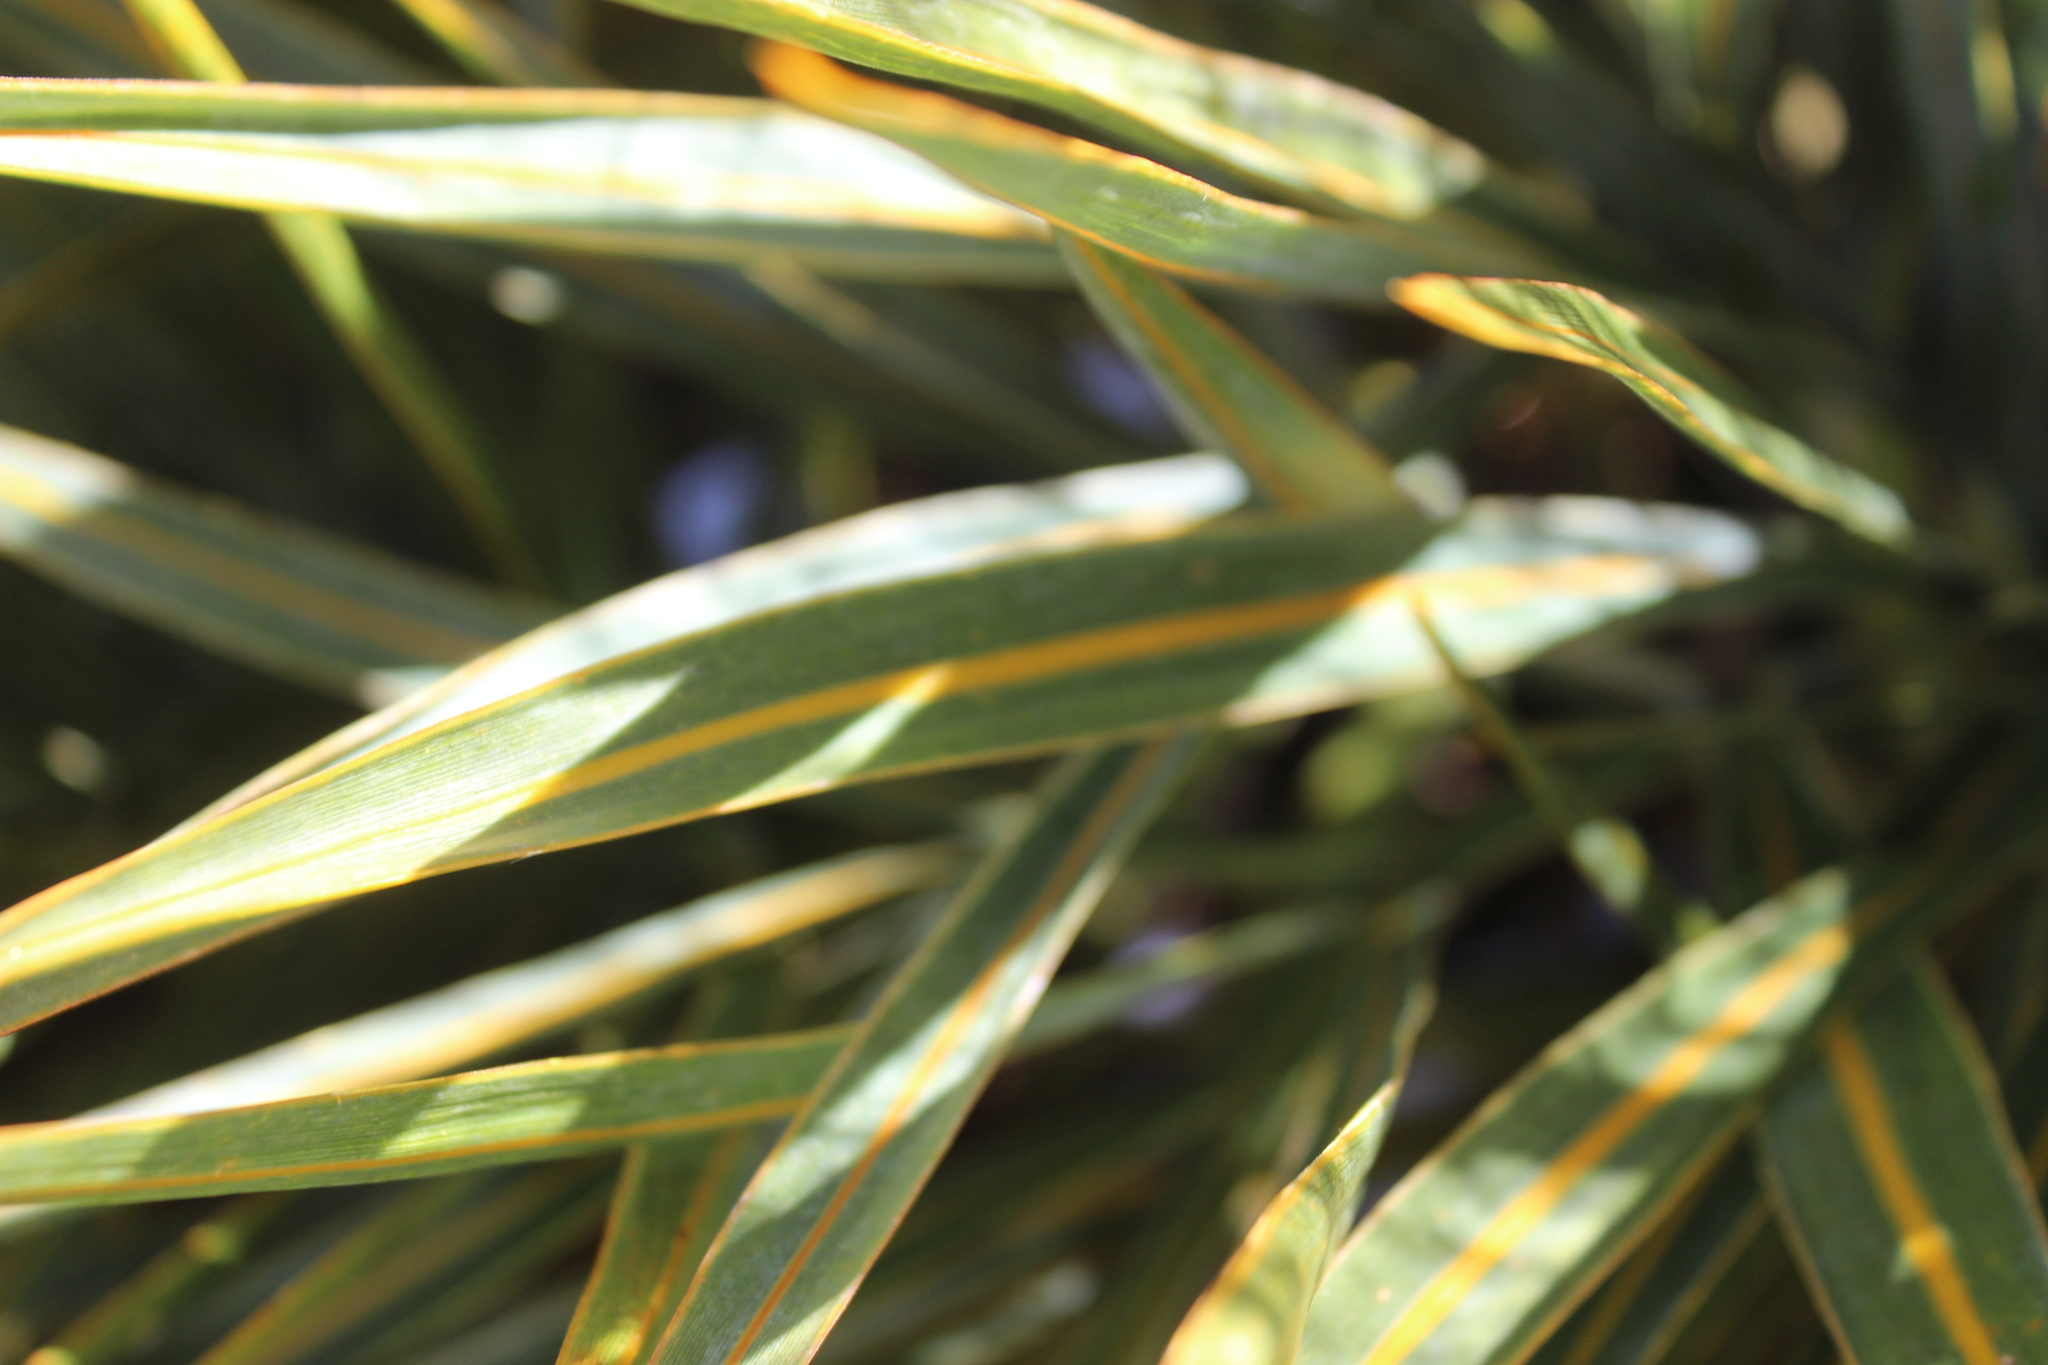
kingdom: Plantae
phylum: Tracheophyta
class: Magnoliopsida
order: Apiales
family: Apiaceae
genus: Aciphylla
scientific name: Aciphylla colensoi
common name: Colenso's spaniard
